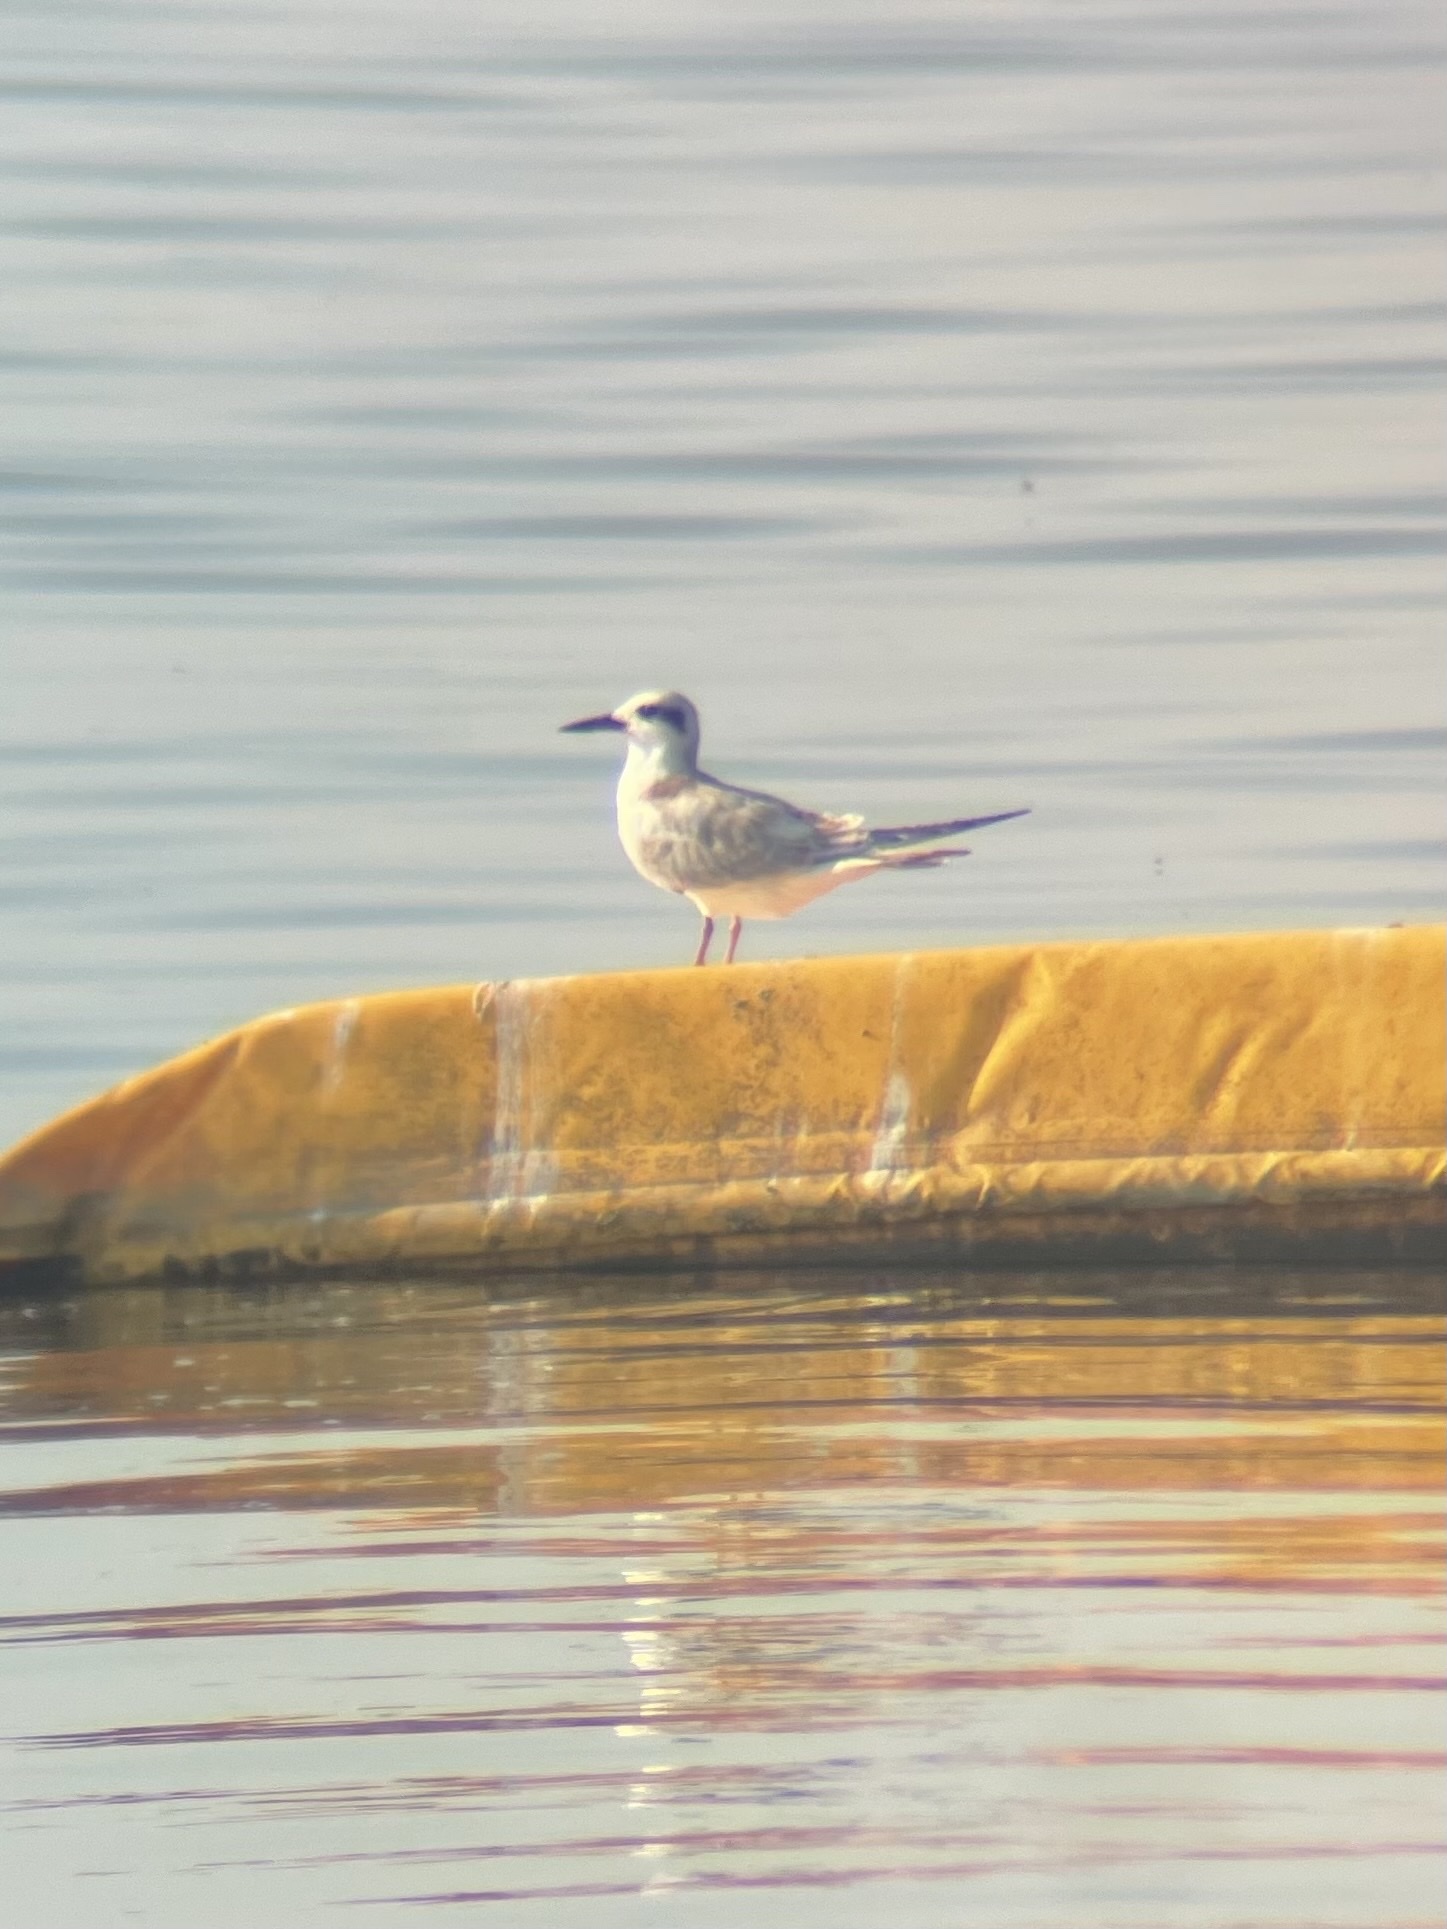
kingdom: Animalia
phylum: Chordata
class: Aves
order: Charadriiformes
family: Laridae
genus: Sterna
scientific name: Sterna forsteri
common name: Forster's tern
